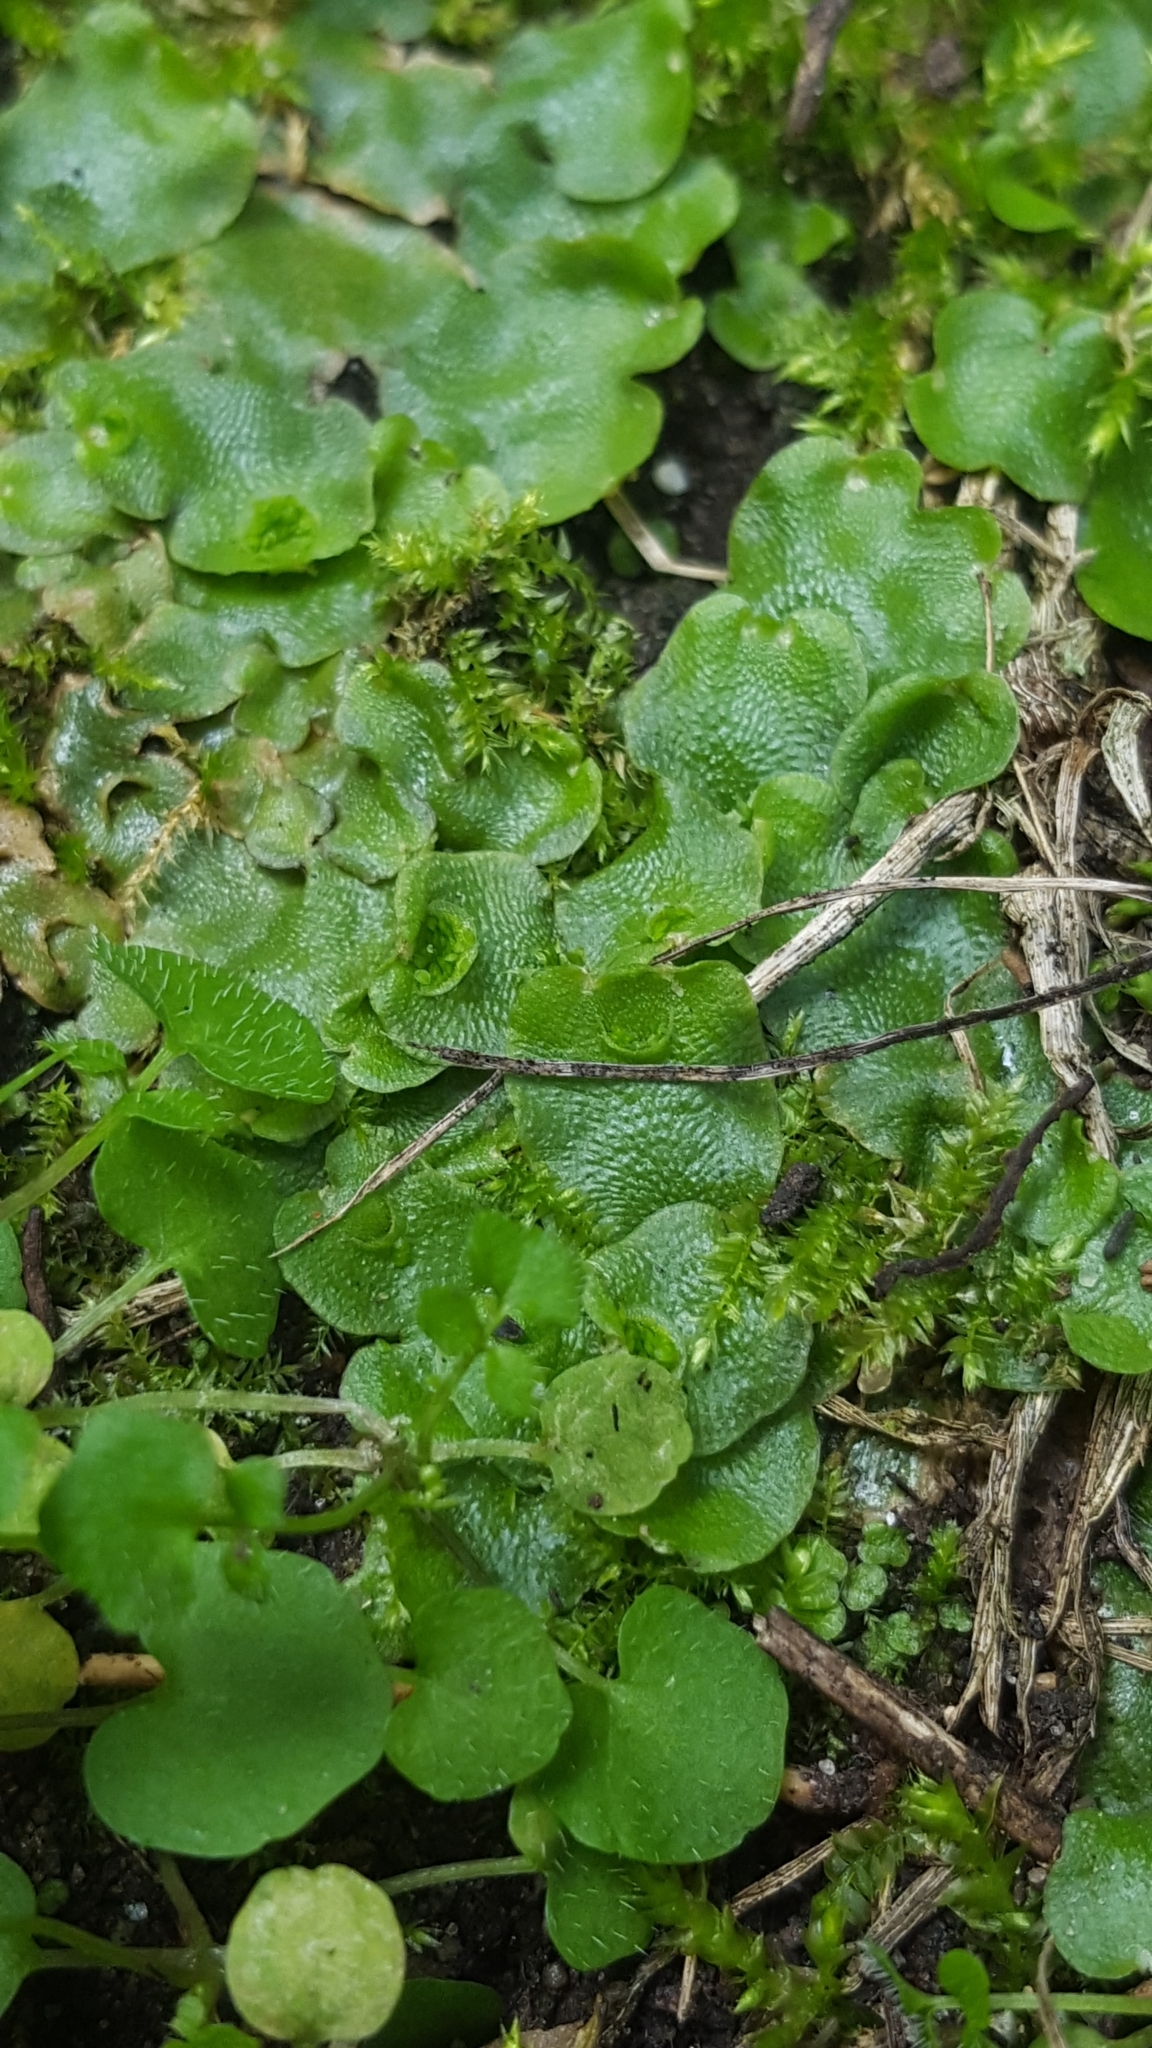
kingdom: Plantae
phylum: Marchantiophyta
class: Marchantiopsida
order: Lunulariales
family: Lunulariaceae
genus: Lunularia
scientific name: Lunularia cruciata
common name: Crescent-cup liverwort
